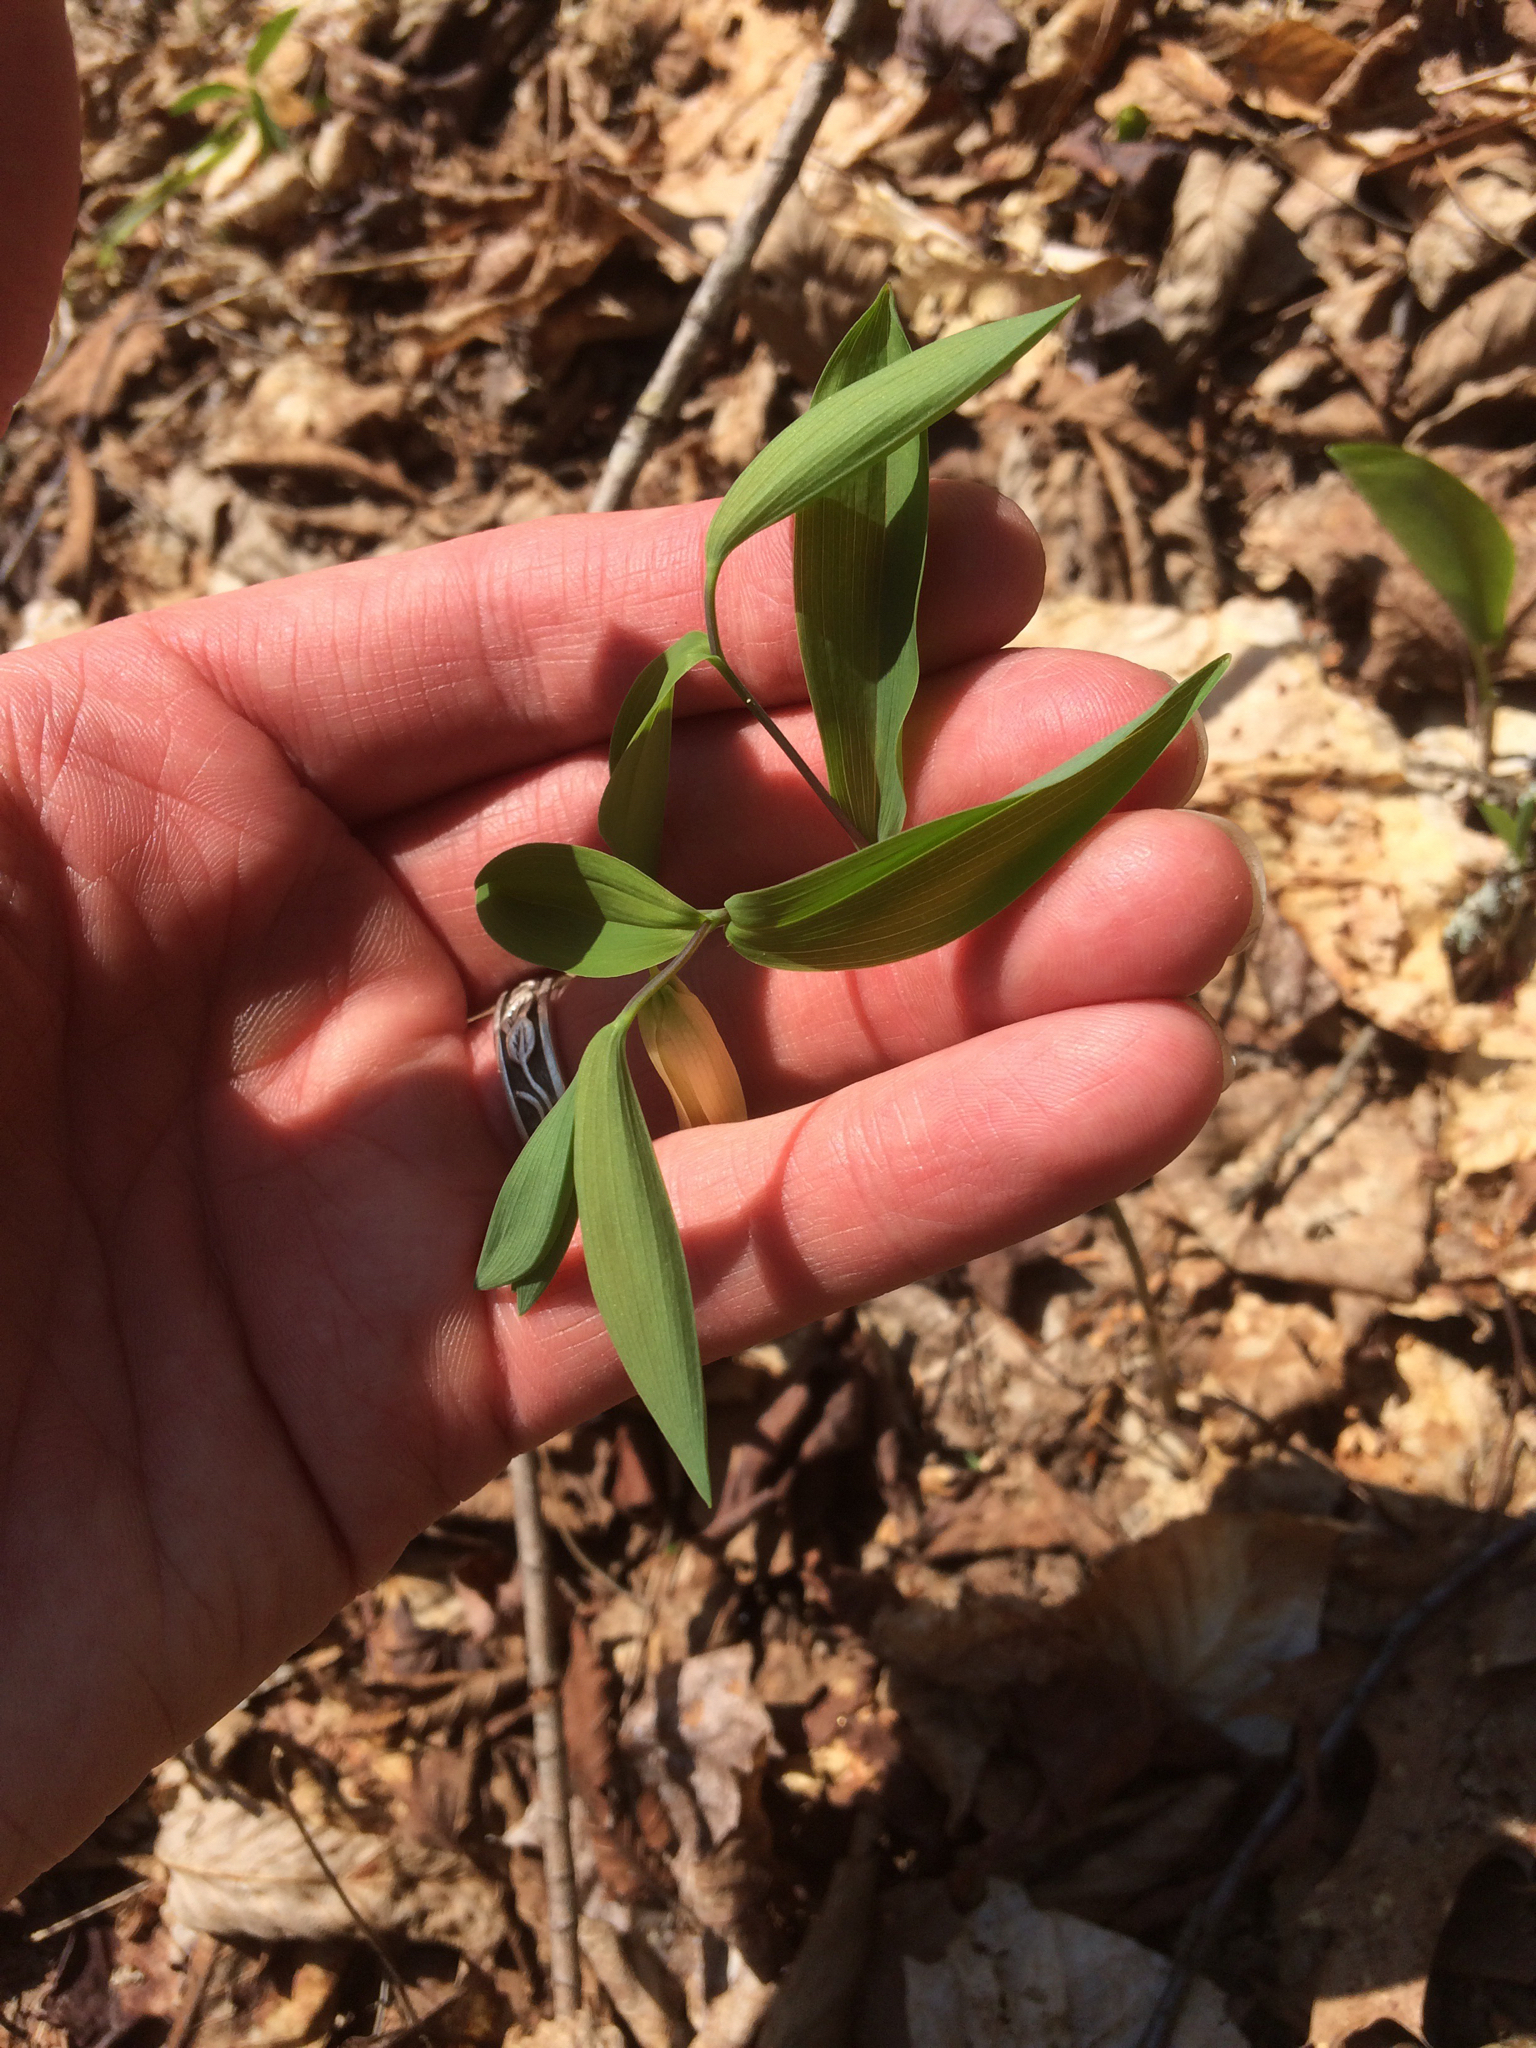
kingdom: Plantae
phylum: Tracheophyta
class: Liliopsida
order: Liliales
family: Colchicaceae
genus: Uvularia
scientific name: Uvularia sessilifolia
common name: Straw-lily
